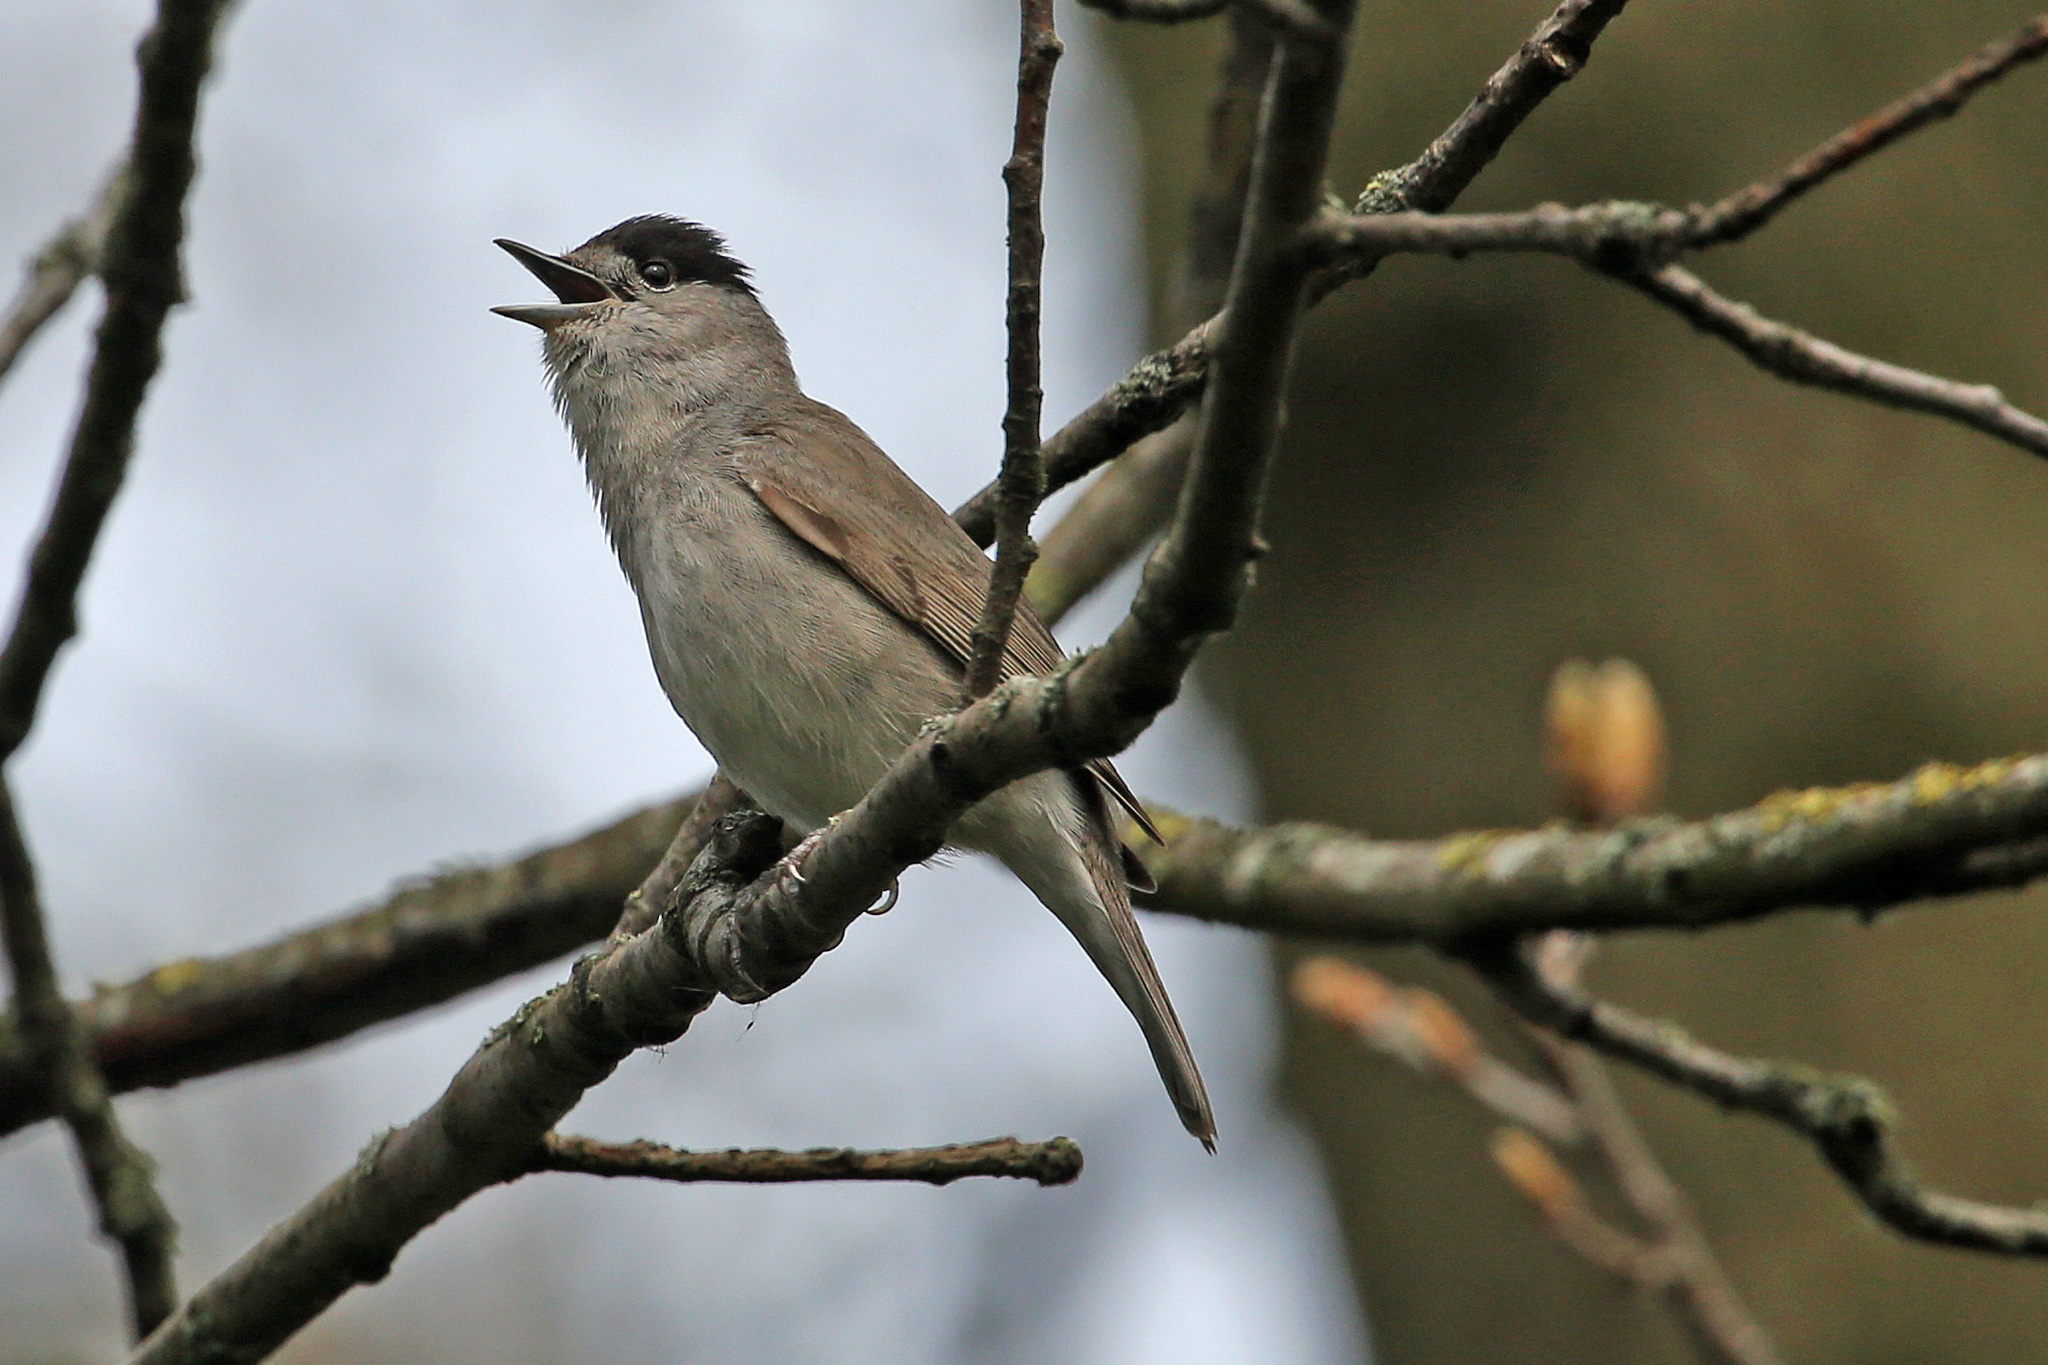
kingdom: Animalia
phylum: Chordata
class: Aves
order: Passeriformes
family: Sylviidae
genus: Sylvia
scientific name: Sylvia atricapilla
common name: Eurasian blackcap
